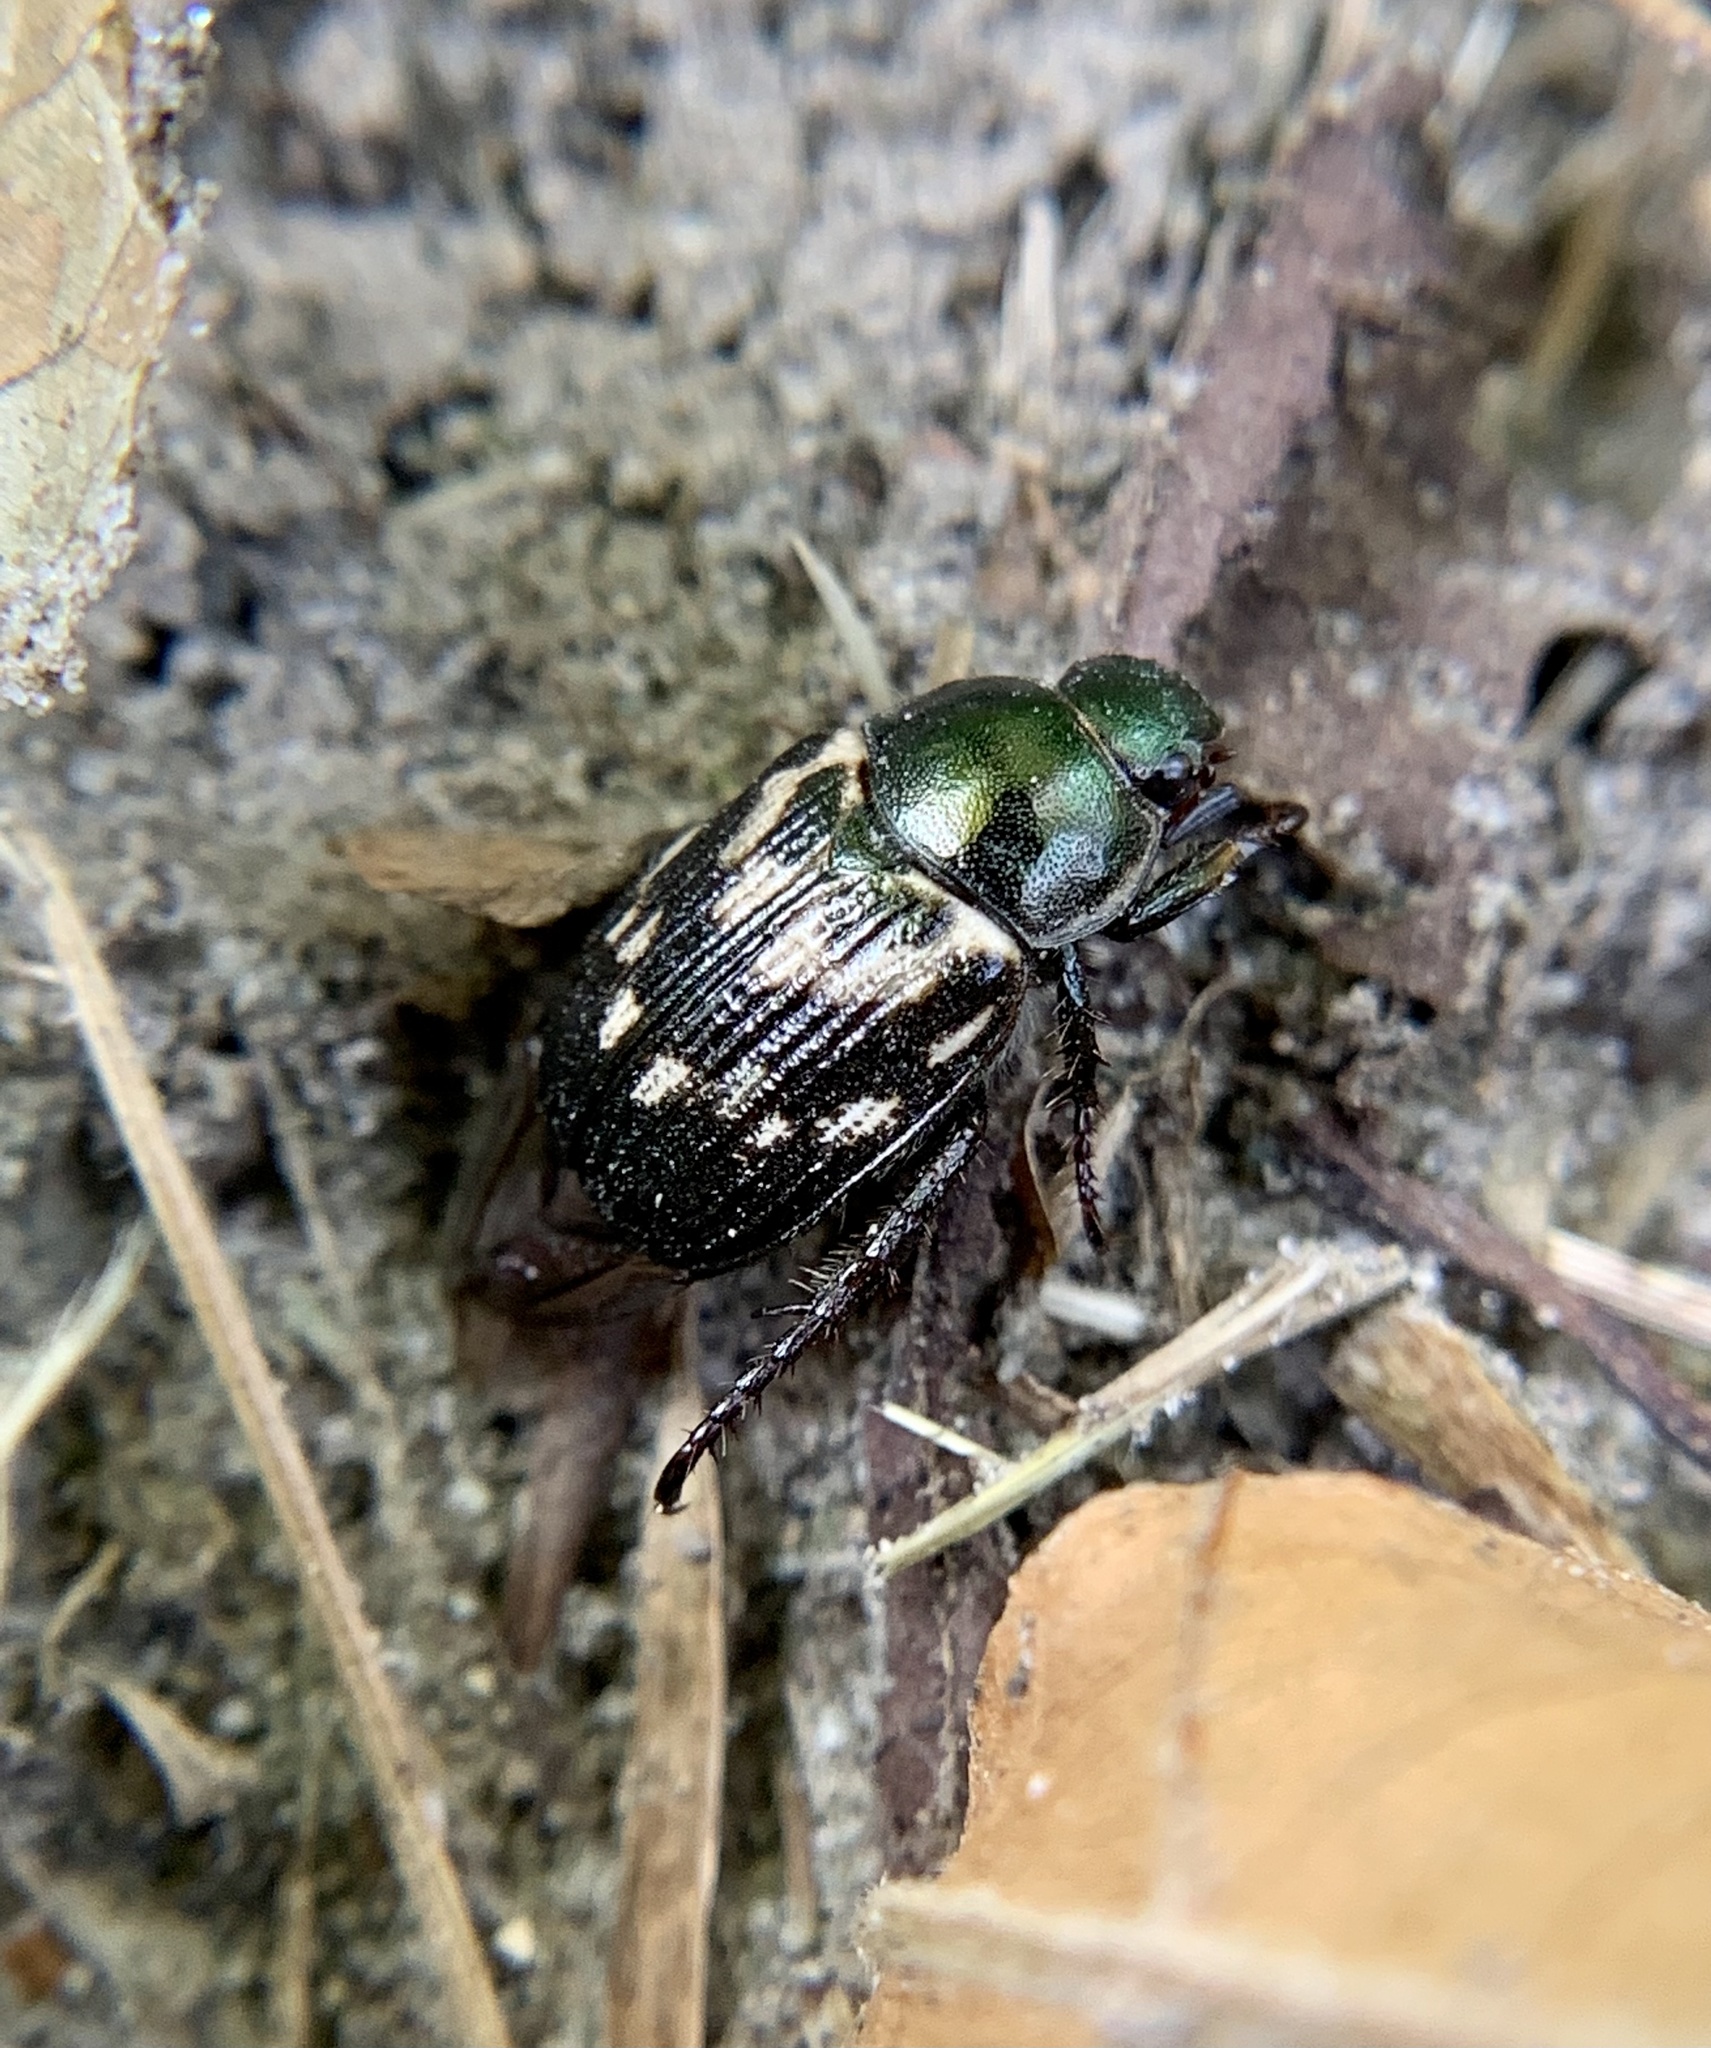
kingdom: Animalia
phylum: Arthropoda
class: Insecta
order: Coleoptera
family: Scarabaeidae
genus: Exomala
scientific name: Exomala orientalis
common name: Oriental beetle
